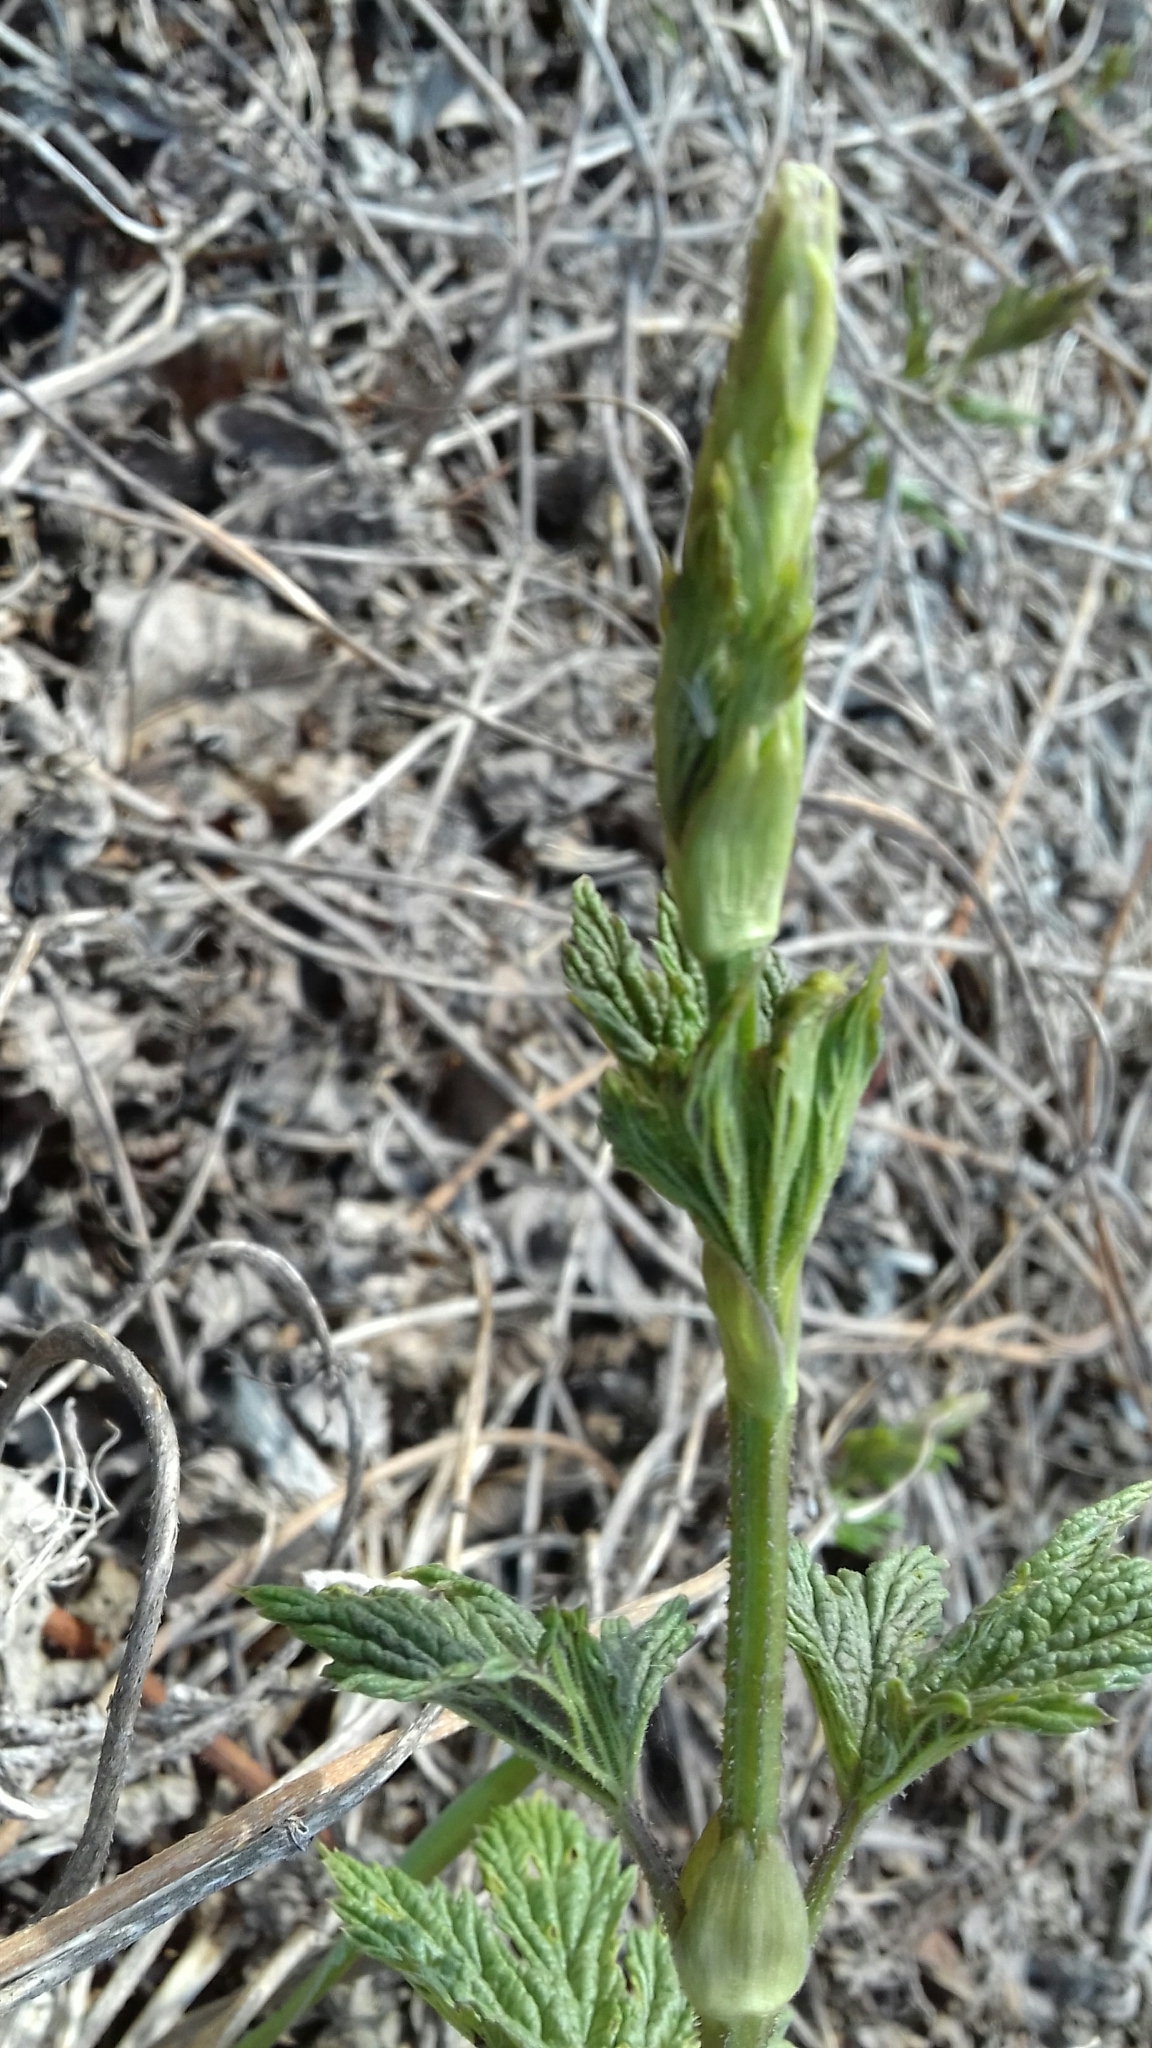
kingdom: Plantae
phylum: Tracheophyta
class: Magnoliopsida
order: Rosales
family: Cannabaceae
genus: Humulus
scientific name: Humulus lupulus
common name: Hop
